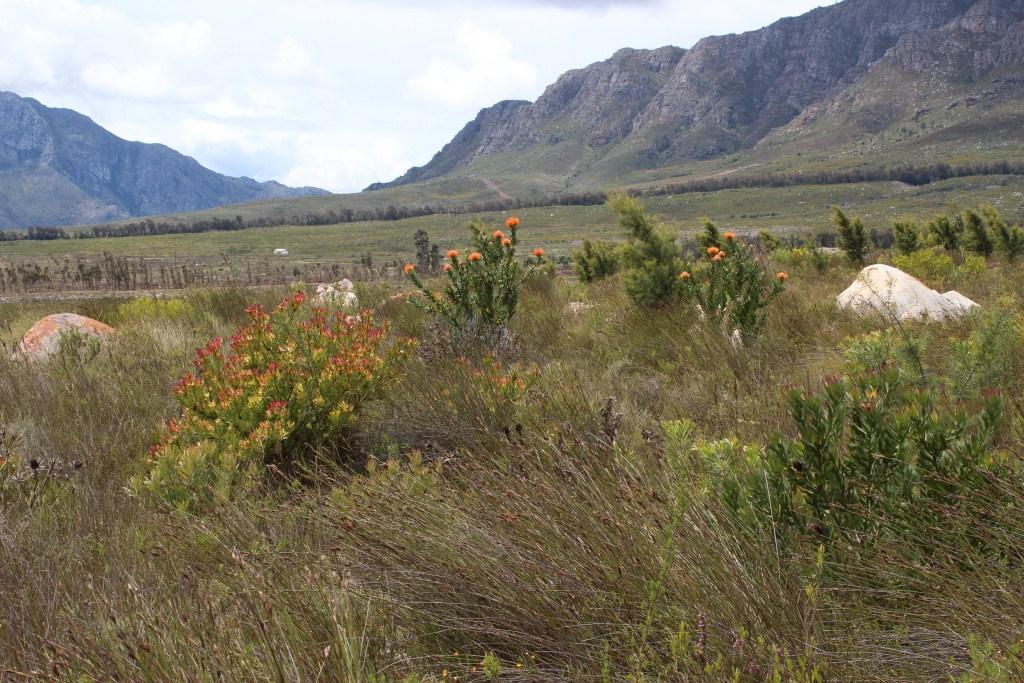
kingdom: Plantae
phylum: Tracheophyta
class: Magnoliopsida
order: Proteales
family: Proteaceae
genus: Leucadendron
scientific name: Leucadendron sessile
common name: Western sunbush
